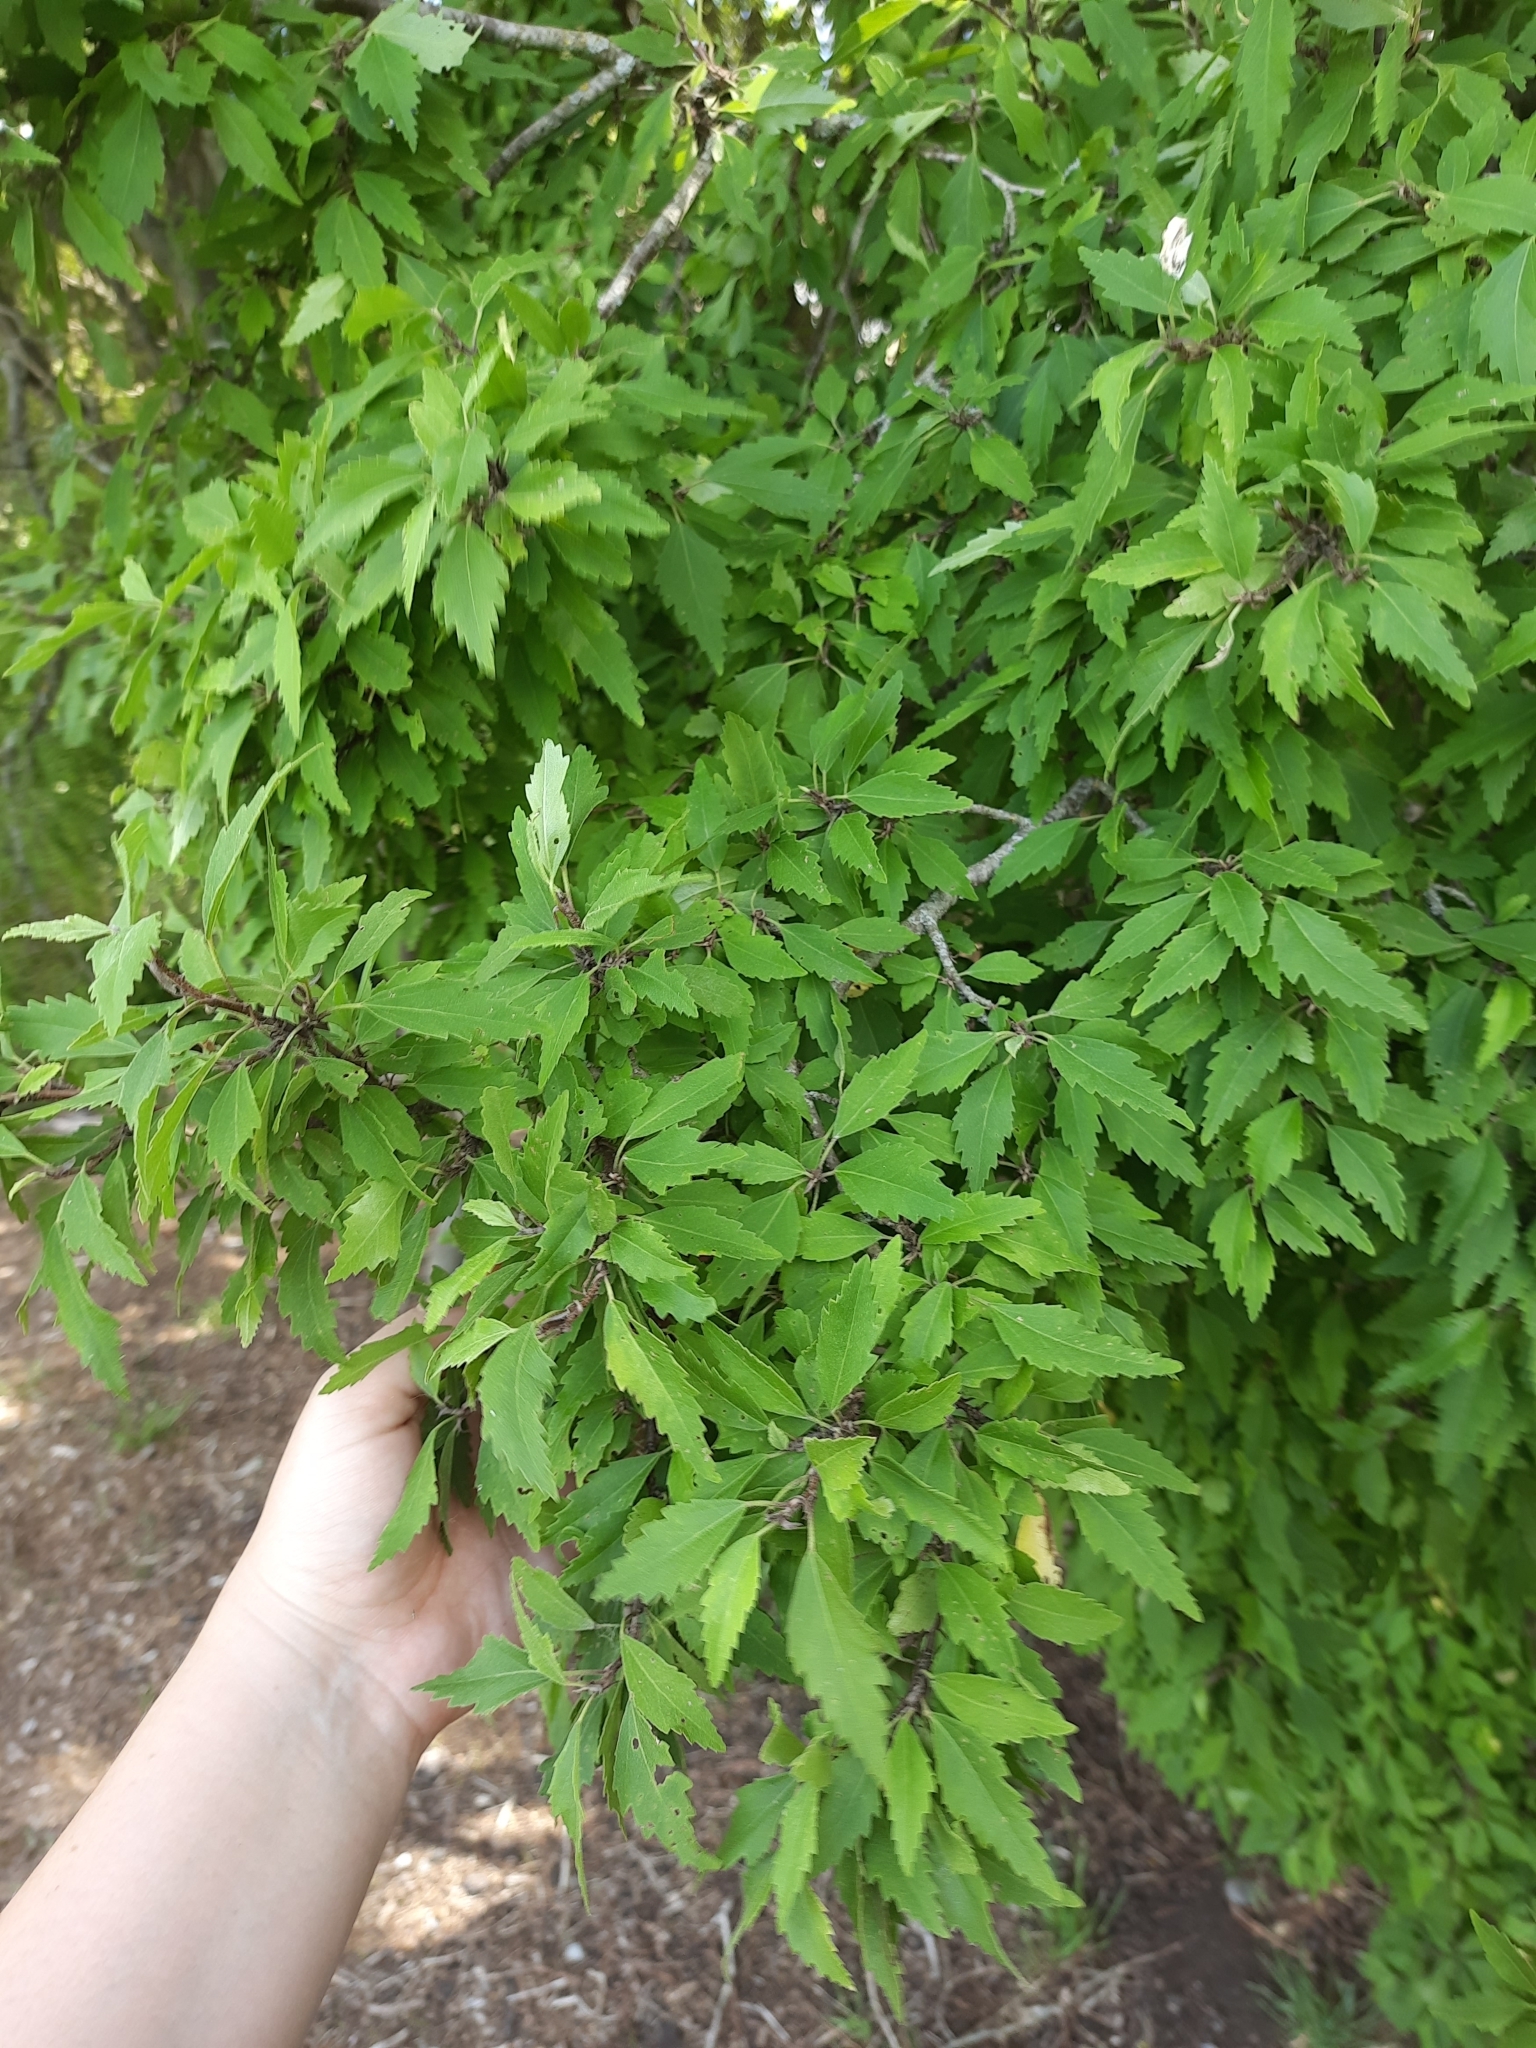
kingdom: Plantae
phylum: Tracheophyta
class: Magnoliopsida
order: Malvales
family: Malvaceae
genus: Plagianthus
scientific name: Plagianthus regius
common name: Manatu
